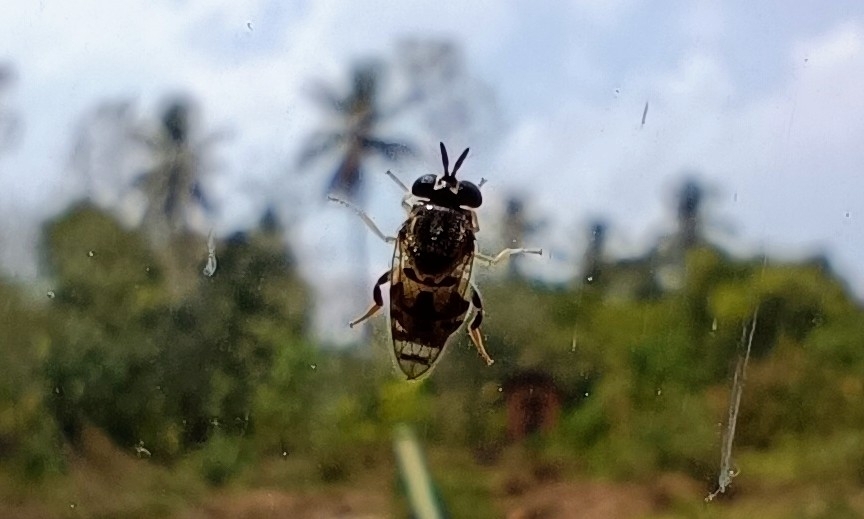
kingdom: Animalia
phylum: Arthropoda
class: Insecta
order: Diptera
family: Syrphidae
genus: Graptomyza
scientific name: Graptomyza brevirostris
